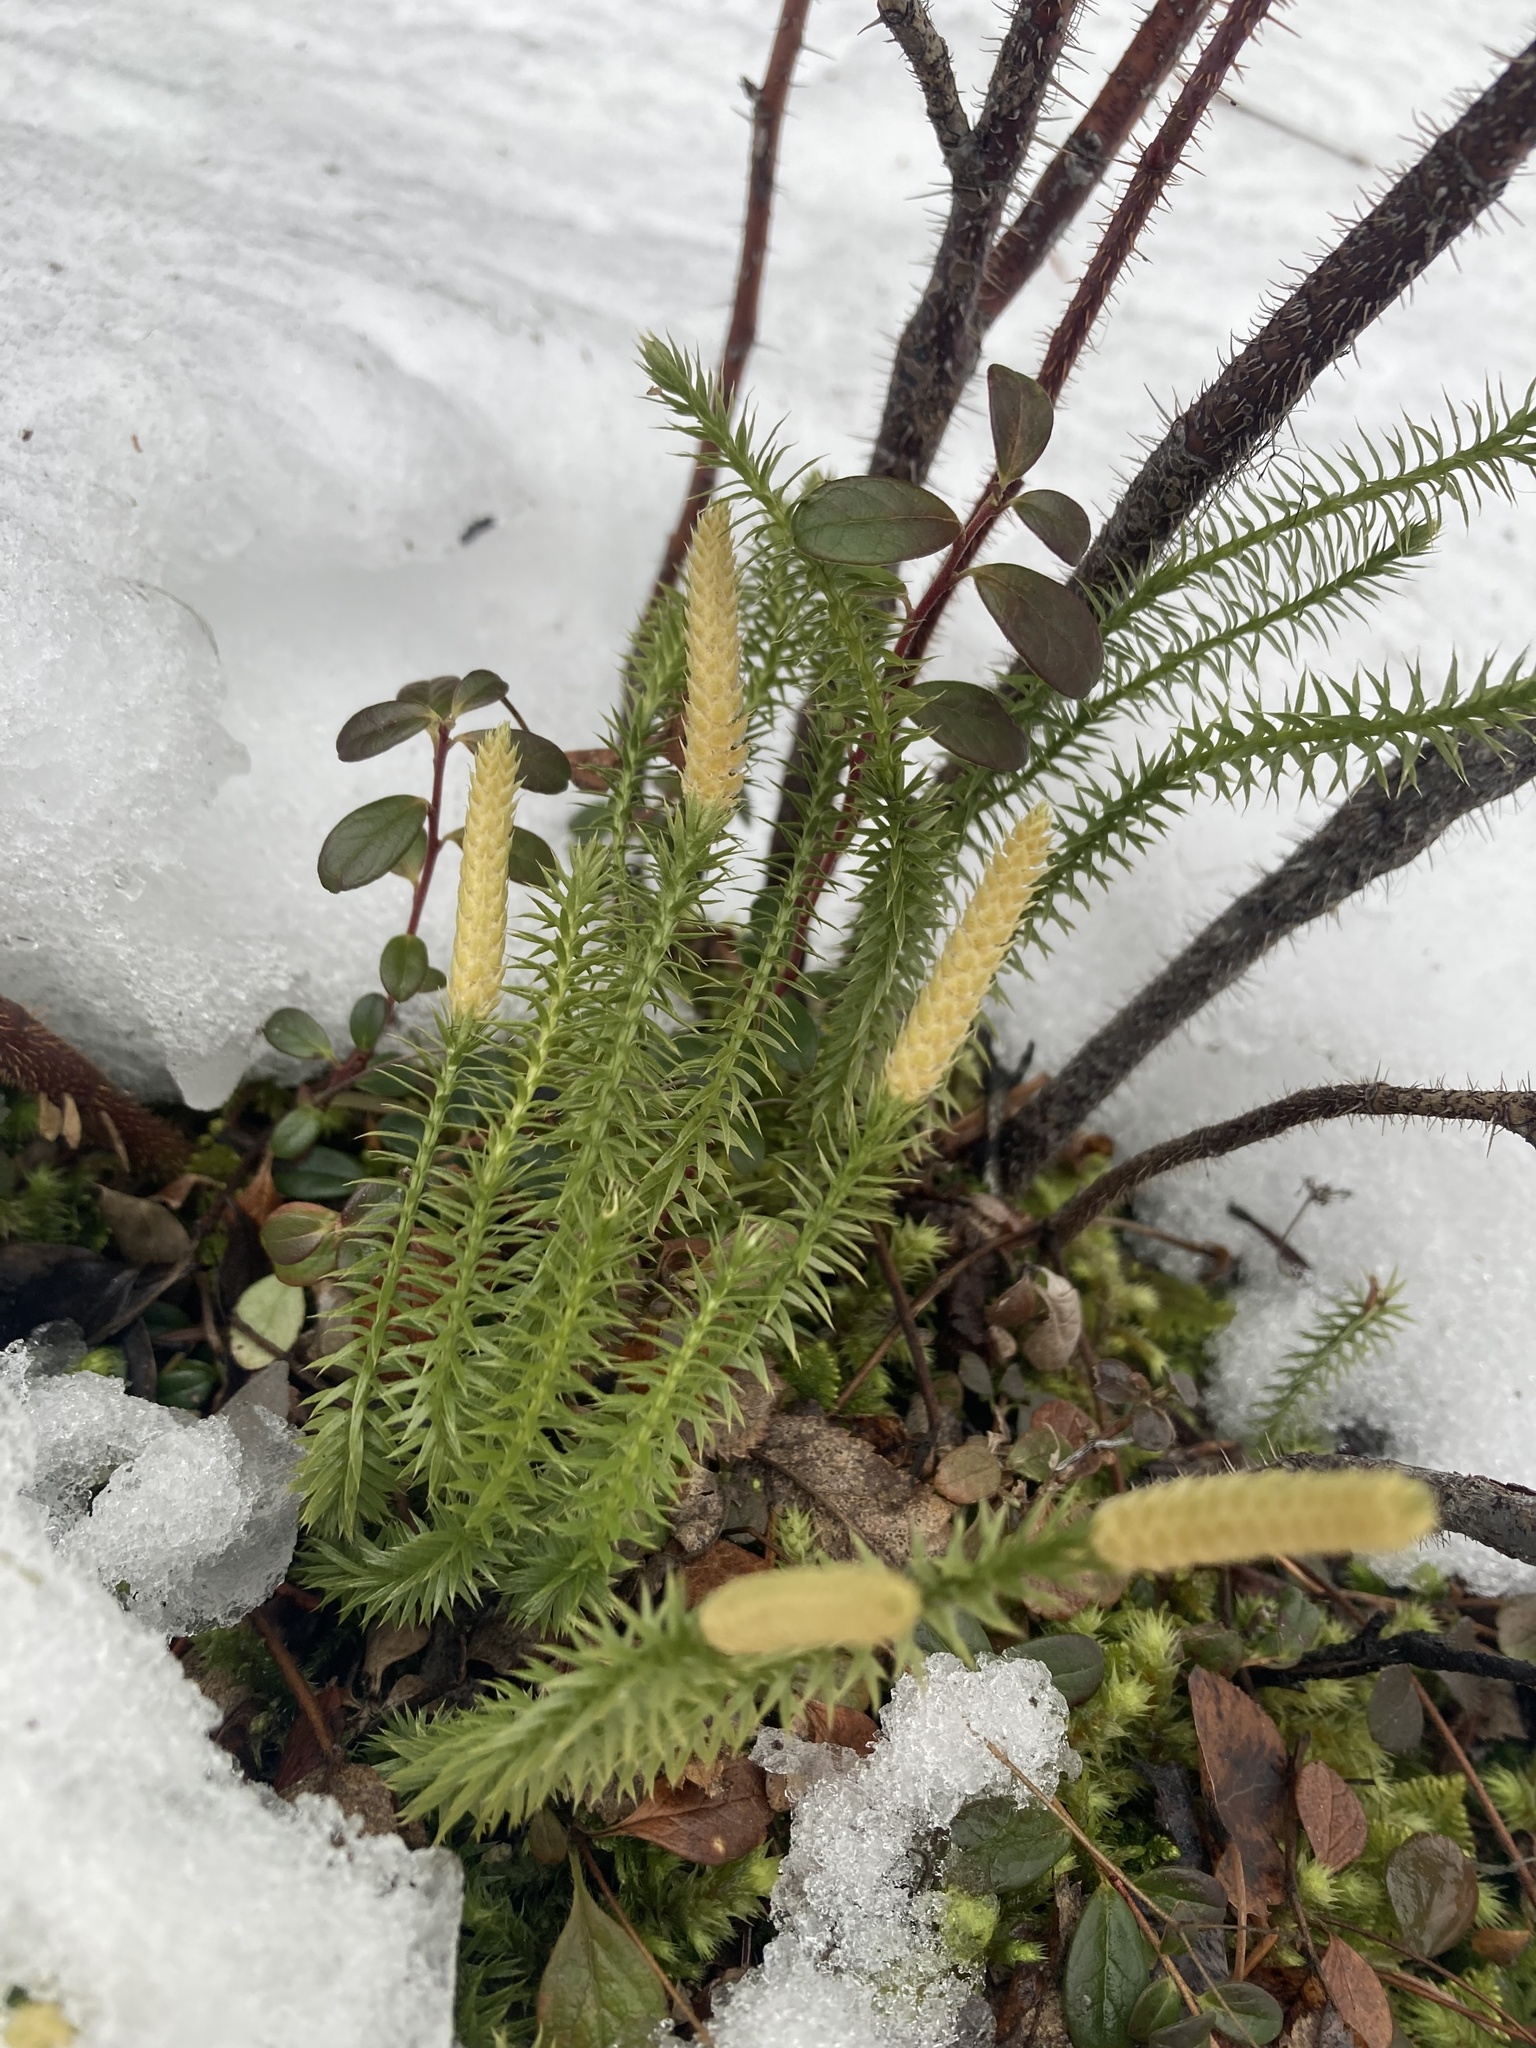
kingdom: Plantae
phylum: Tracheophyta
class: Lycopodiopsida
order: Lycopodiales
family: Lycopodiaceae
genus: Spinulum
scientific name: Spinulum annotinum
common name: Interrupted club-moss
